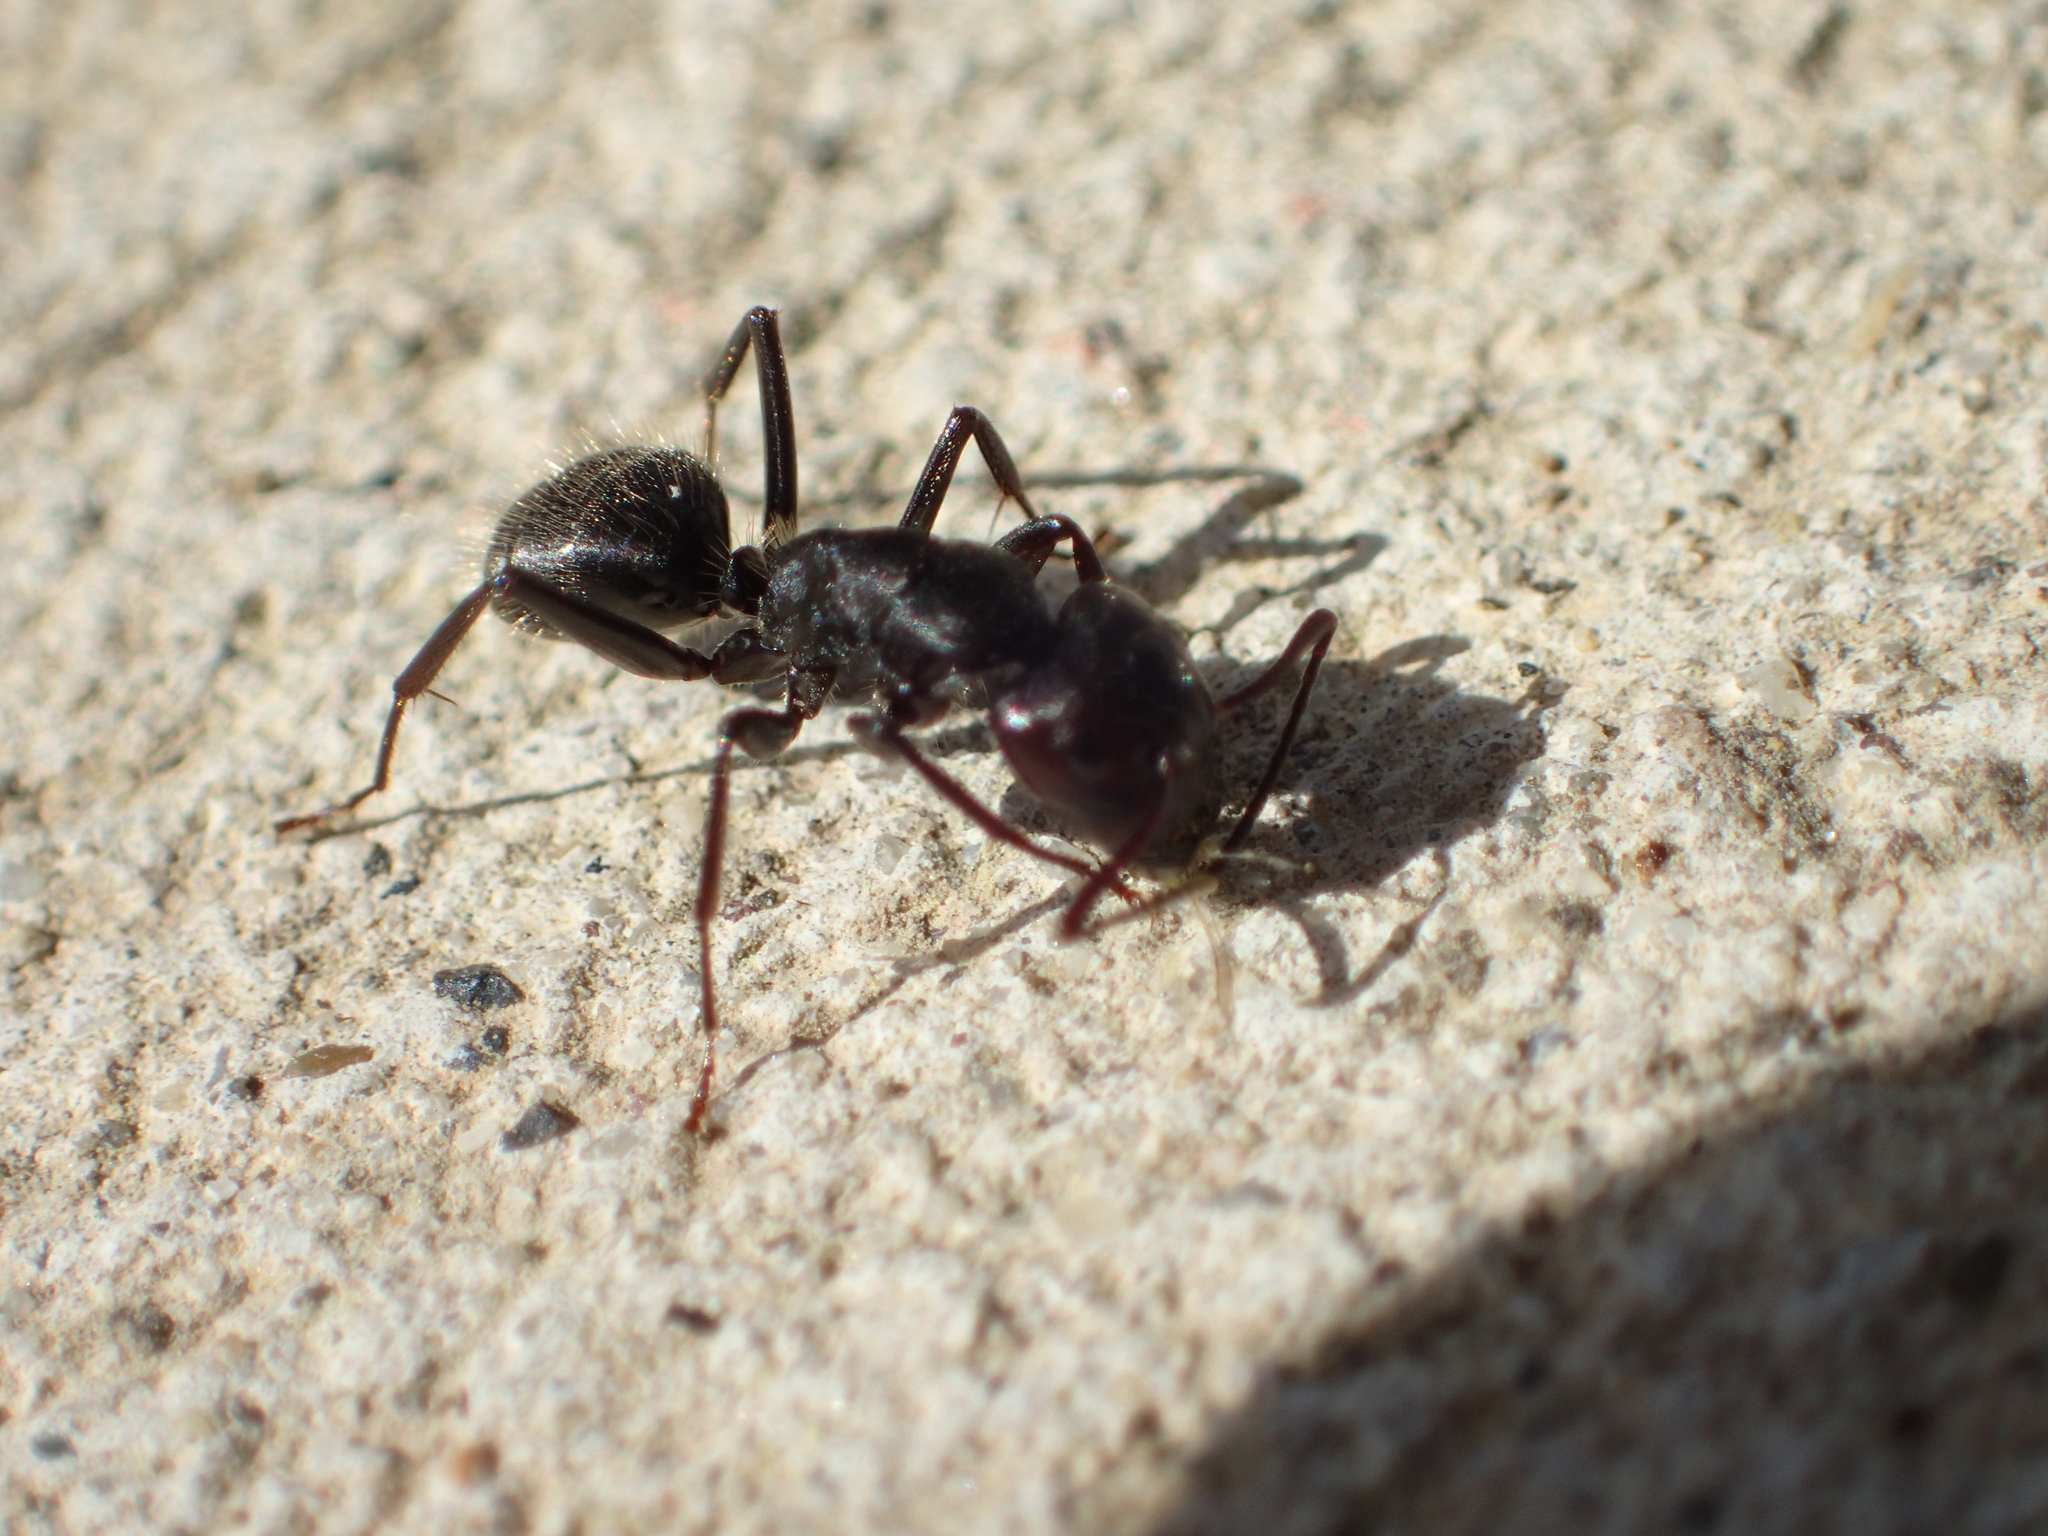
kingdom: Animalia
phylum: Arthropoda
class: Insecta
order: Hymenoptera
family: Formicidae
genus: Camponotus
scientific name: Camponotus vagus
